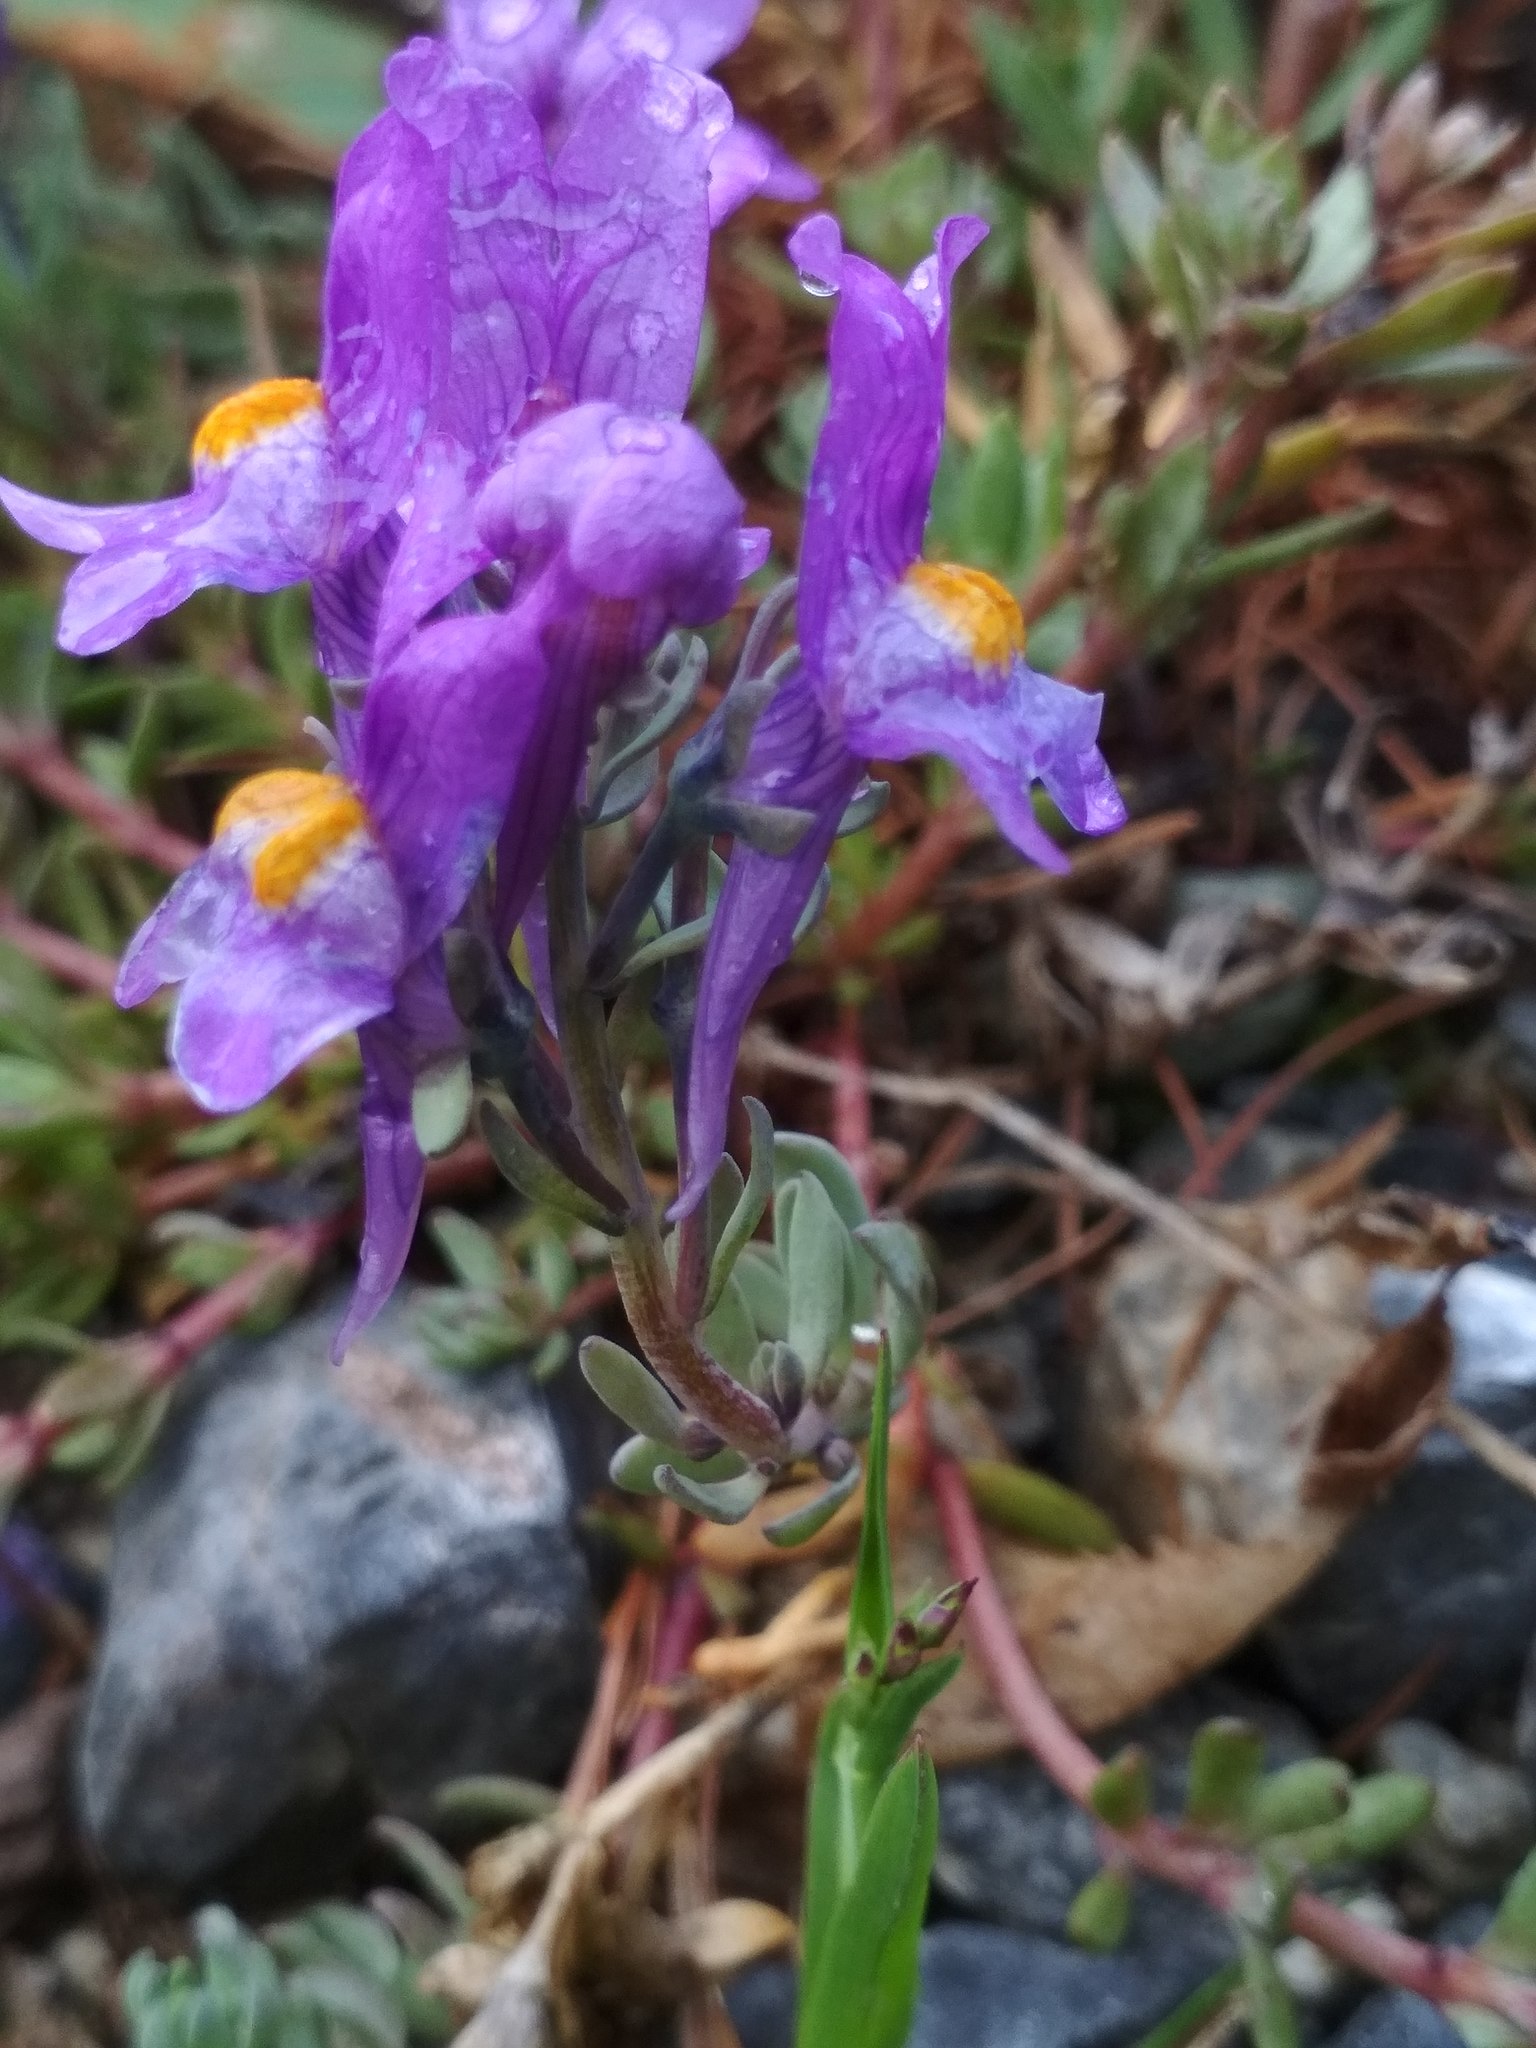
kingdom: Plantae
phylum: Tracheophyta
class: Magnoliopsida
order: Lamiales
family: Plantaginaceae
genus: Linaria
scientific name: Linaria alpina
